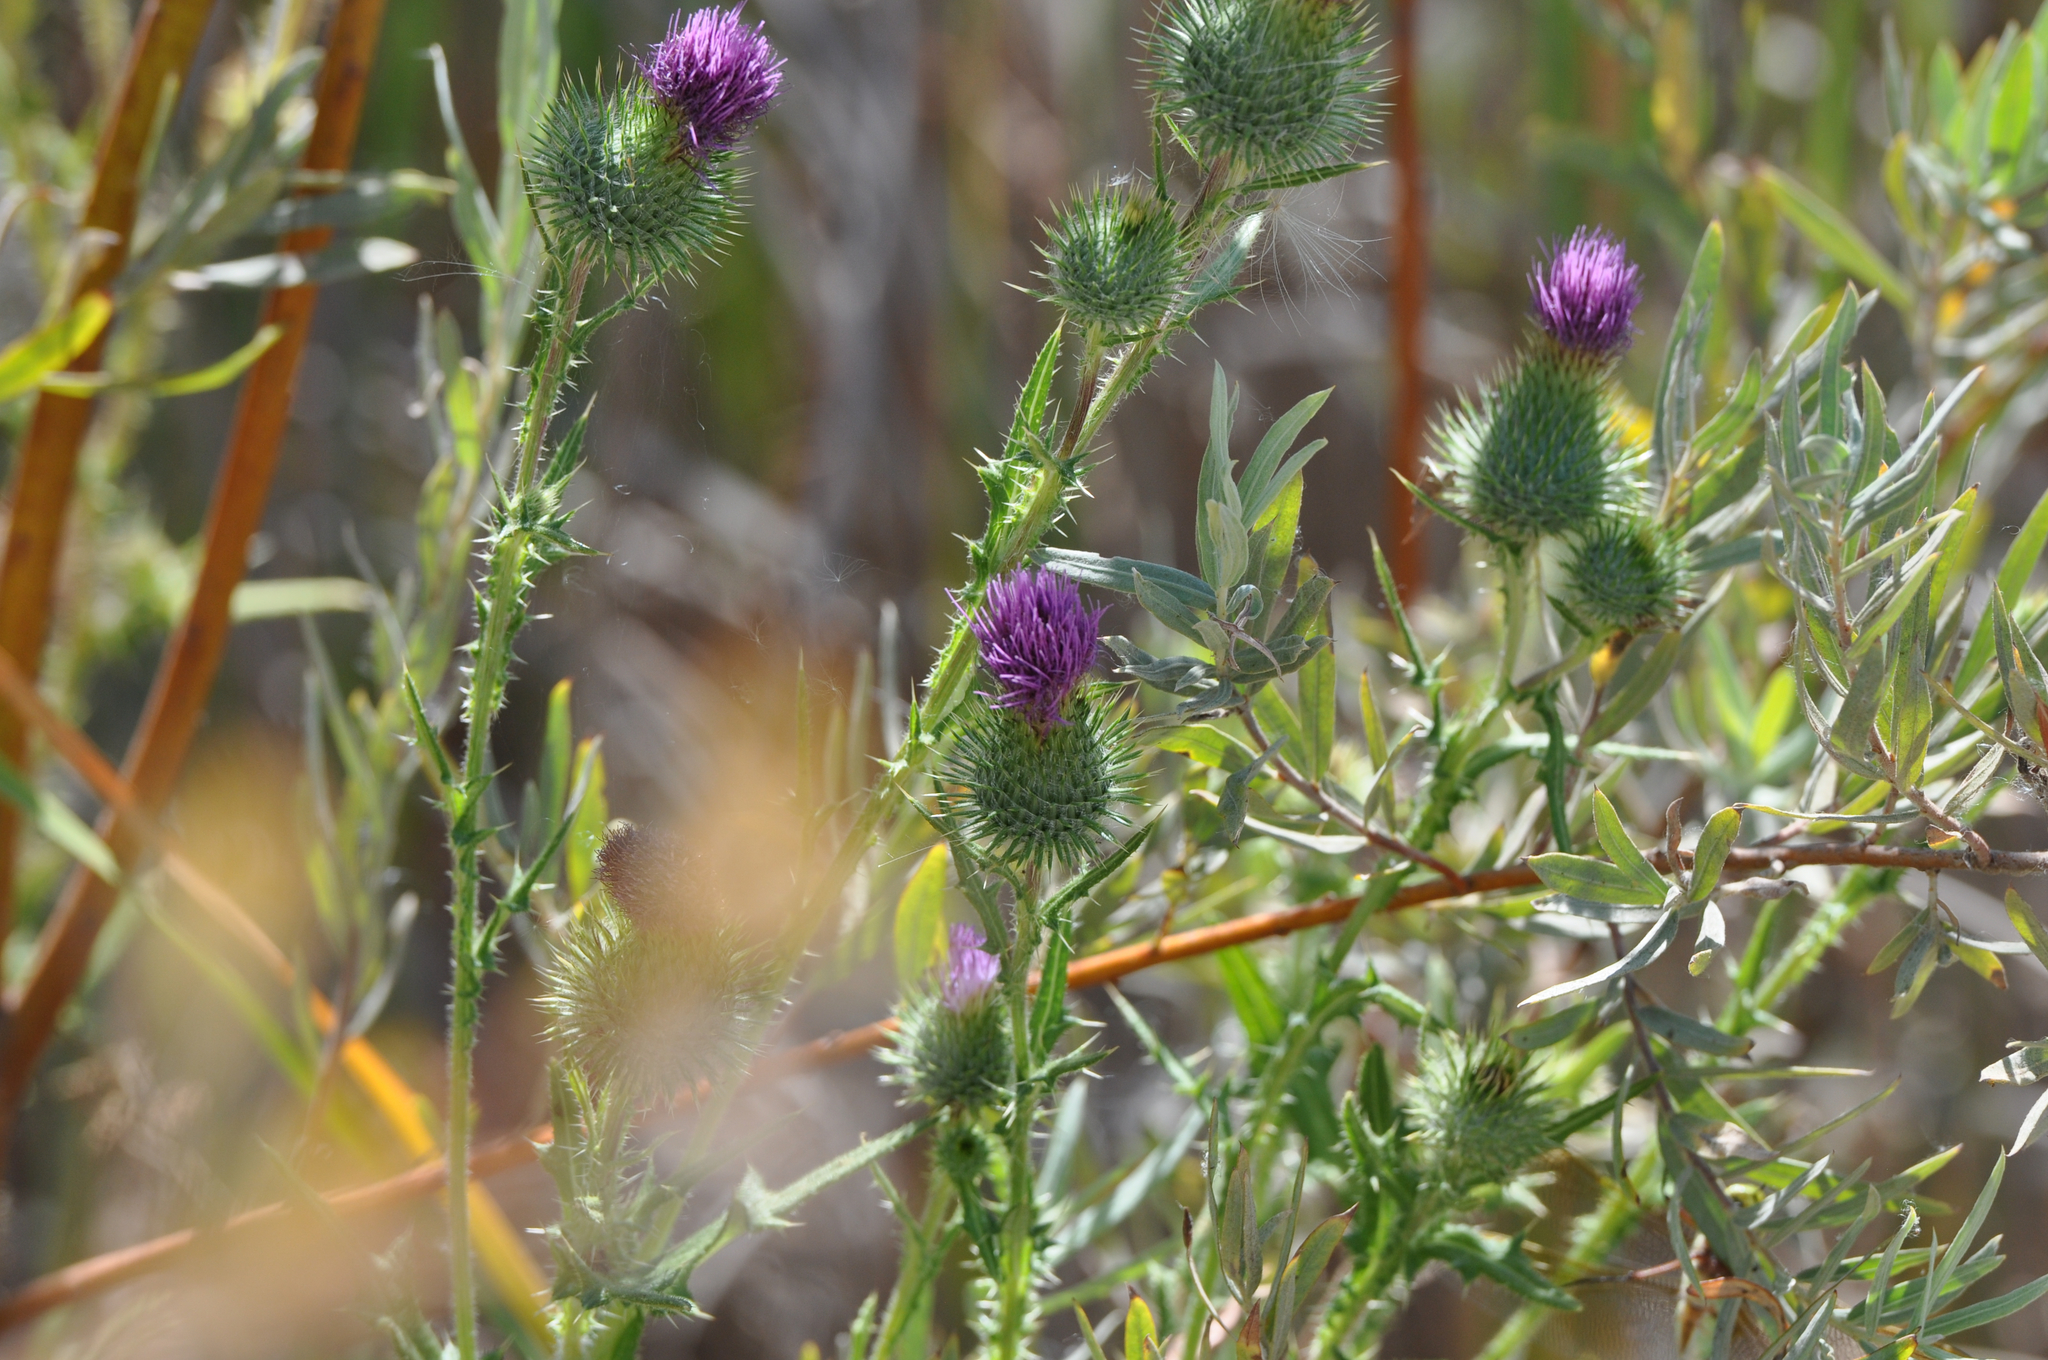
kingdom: Plantae
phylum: Tracheophyta
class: Magnoliopsida
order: Asterales
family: Asteraceae
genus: Cirsium
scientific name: Cirsium vulgare
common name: Bull thistle
